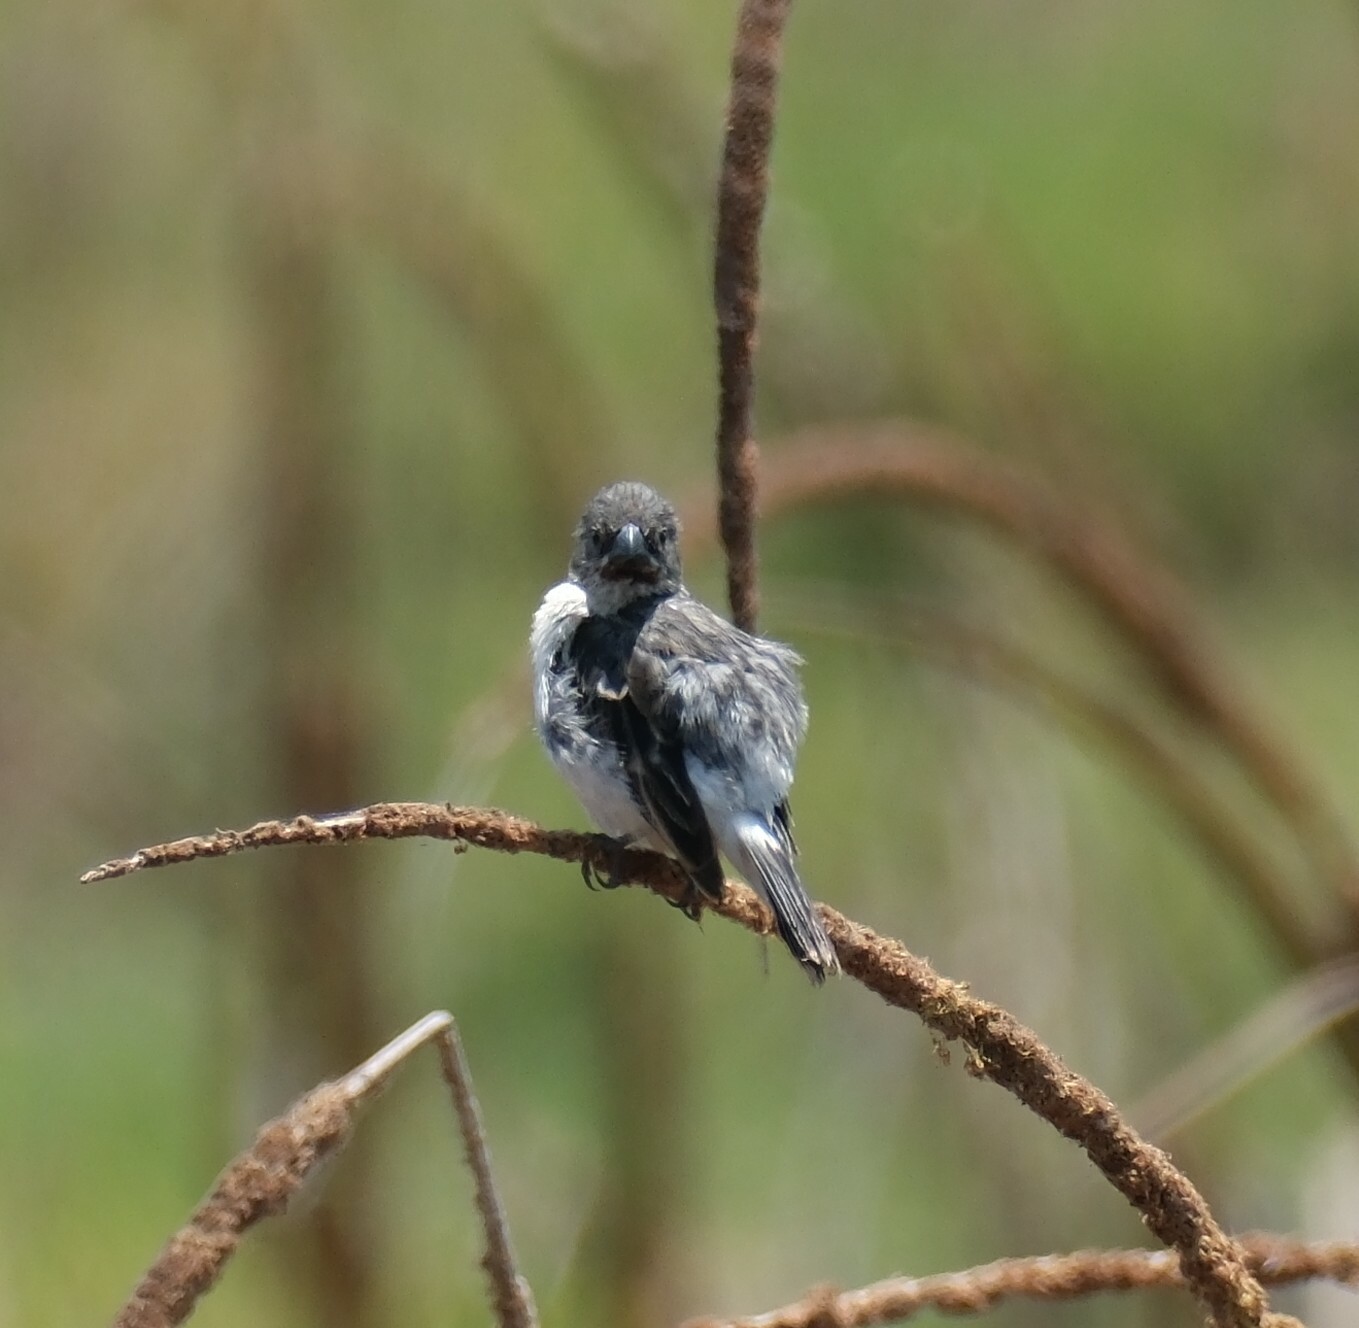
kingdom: Animalia
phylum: Chordata
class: Aves
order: Passeriformes
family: Thraupidae
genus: Sporophila
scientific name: Sporophila telasco
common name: Chestnut-throated seedeater
